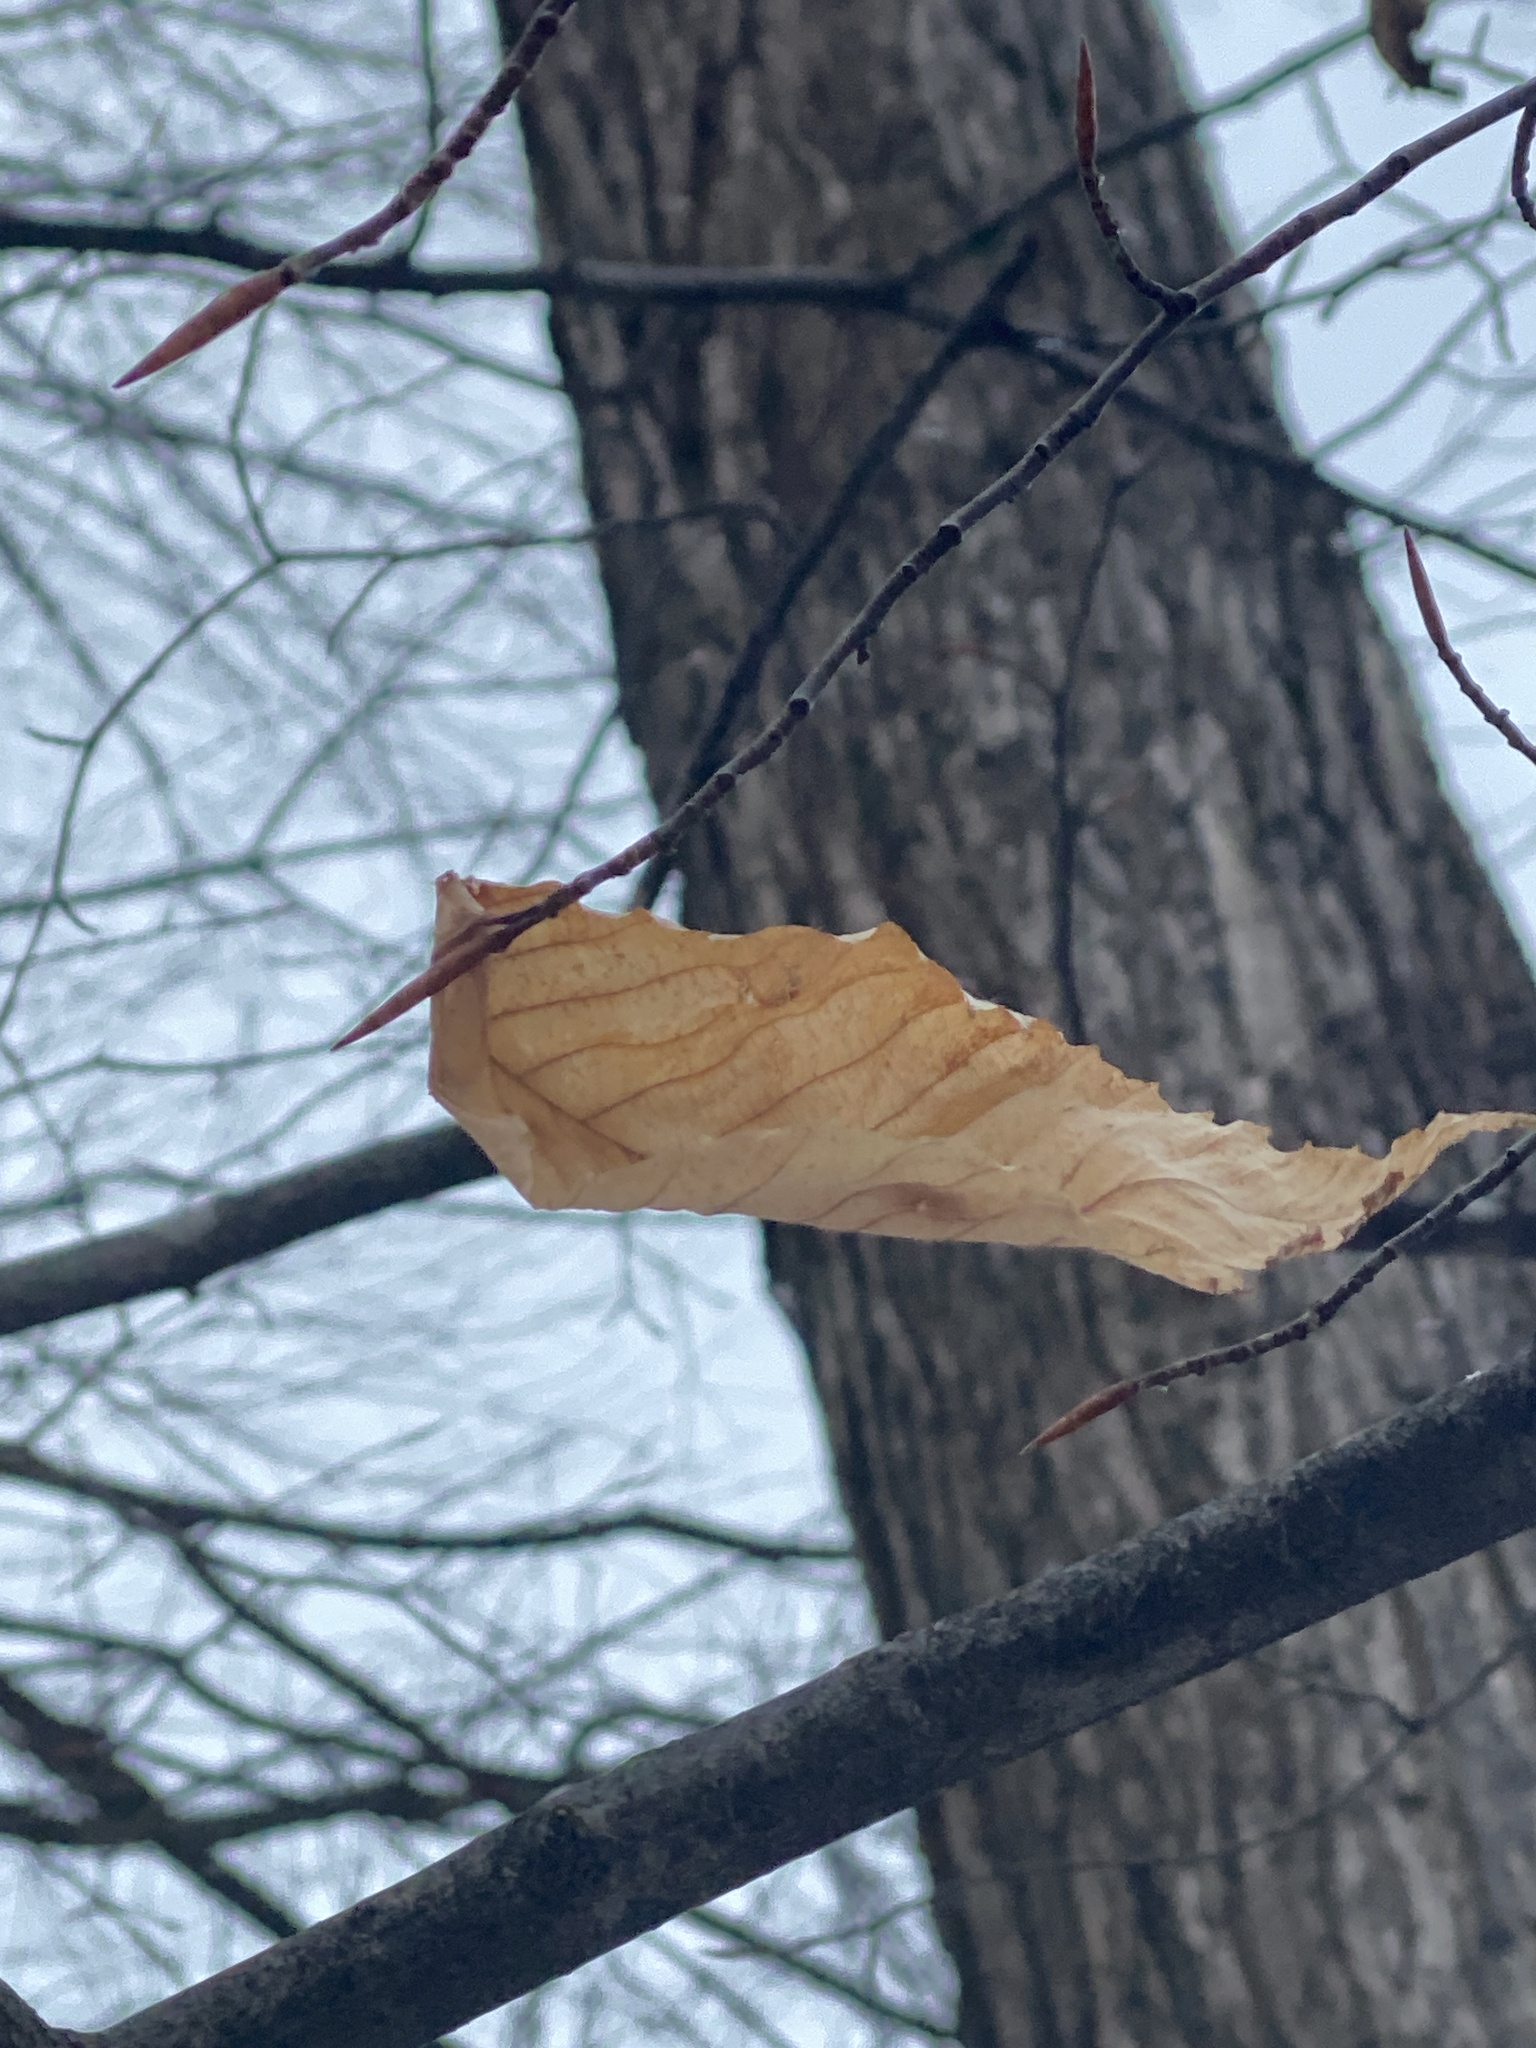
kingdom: Plantae
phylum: Tracheophyta
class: Magnoliopsida
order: Fagales
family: Fagaceae
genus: Fagus
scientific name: Fagus grandifolia
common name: American beech
